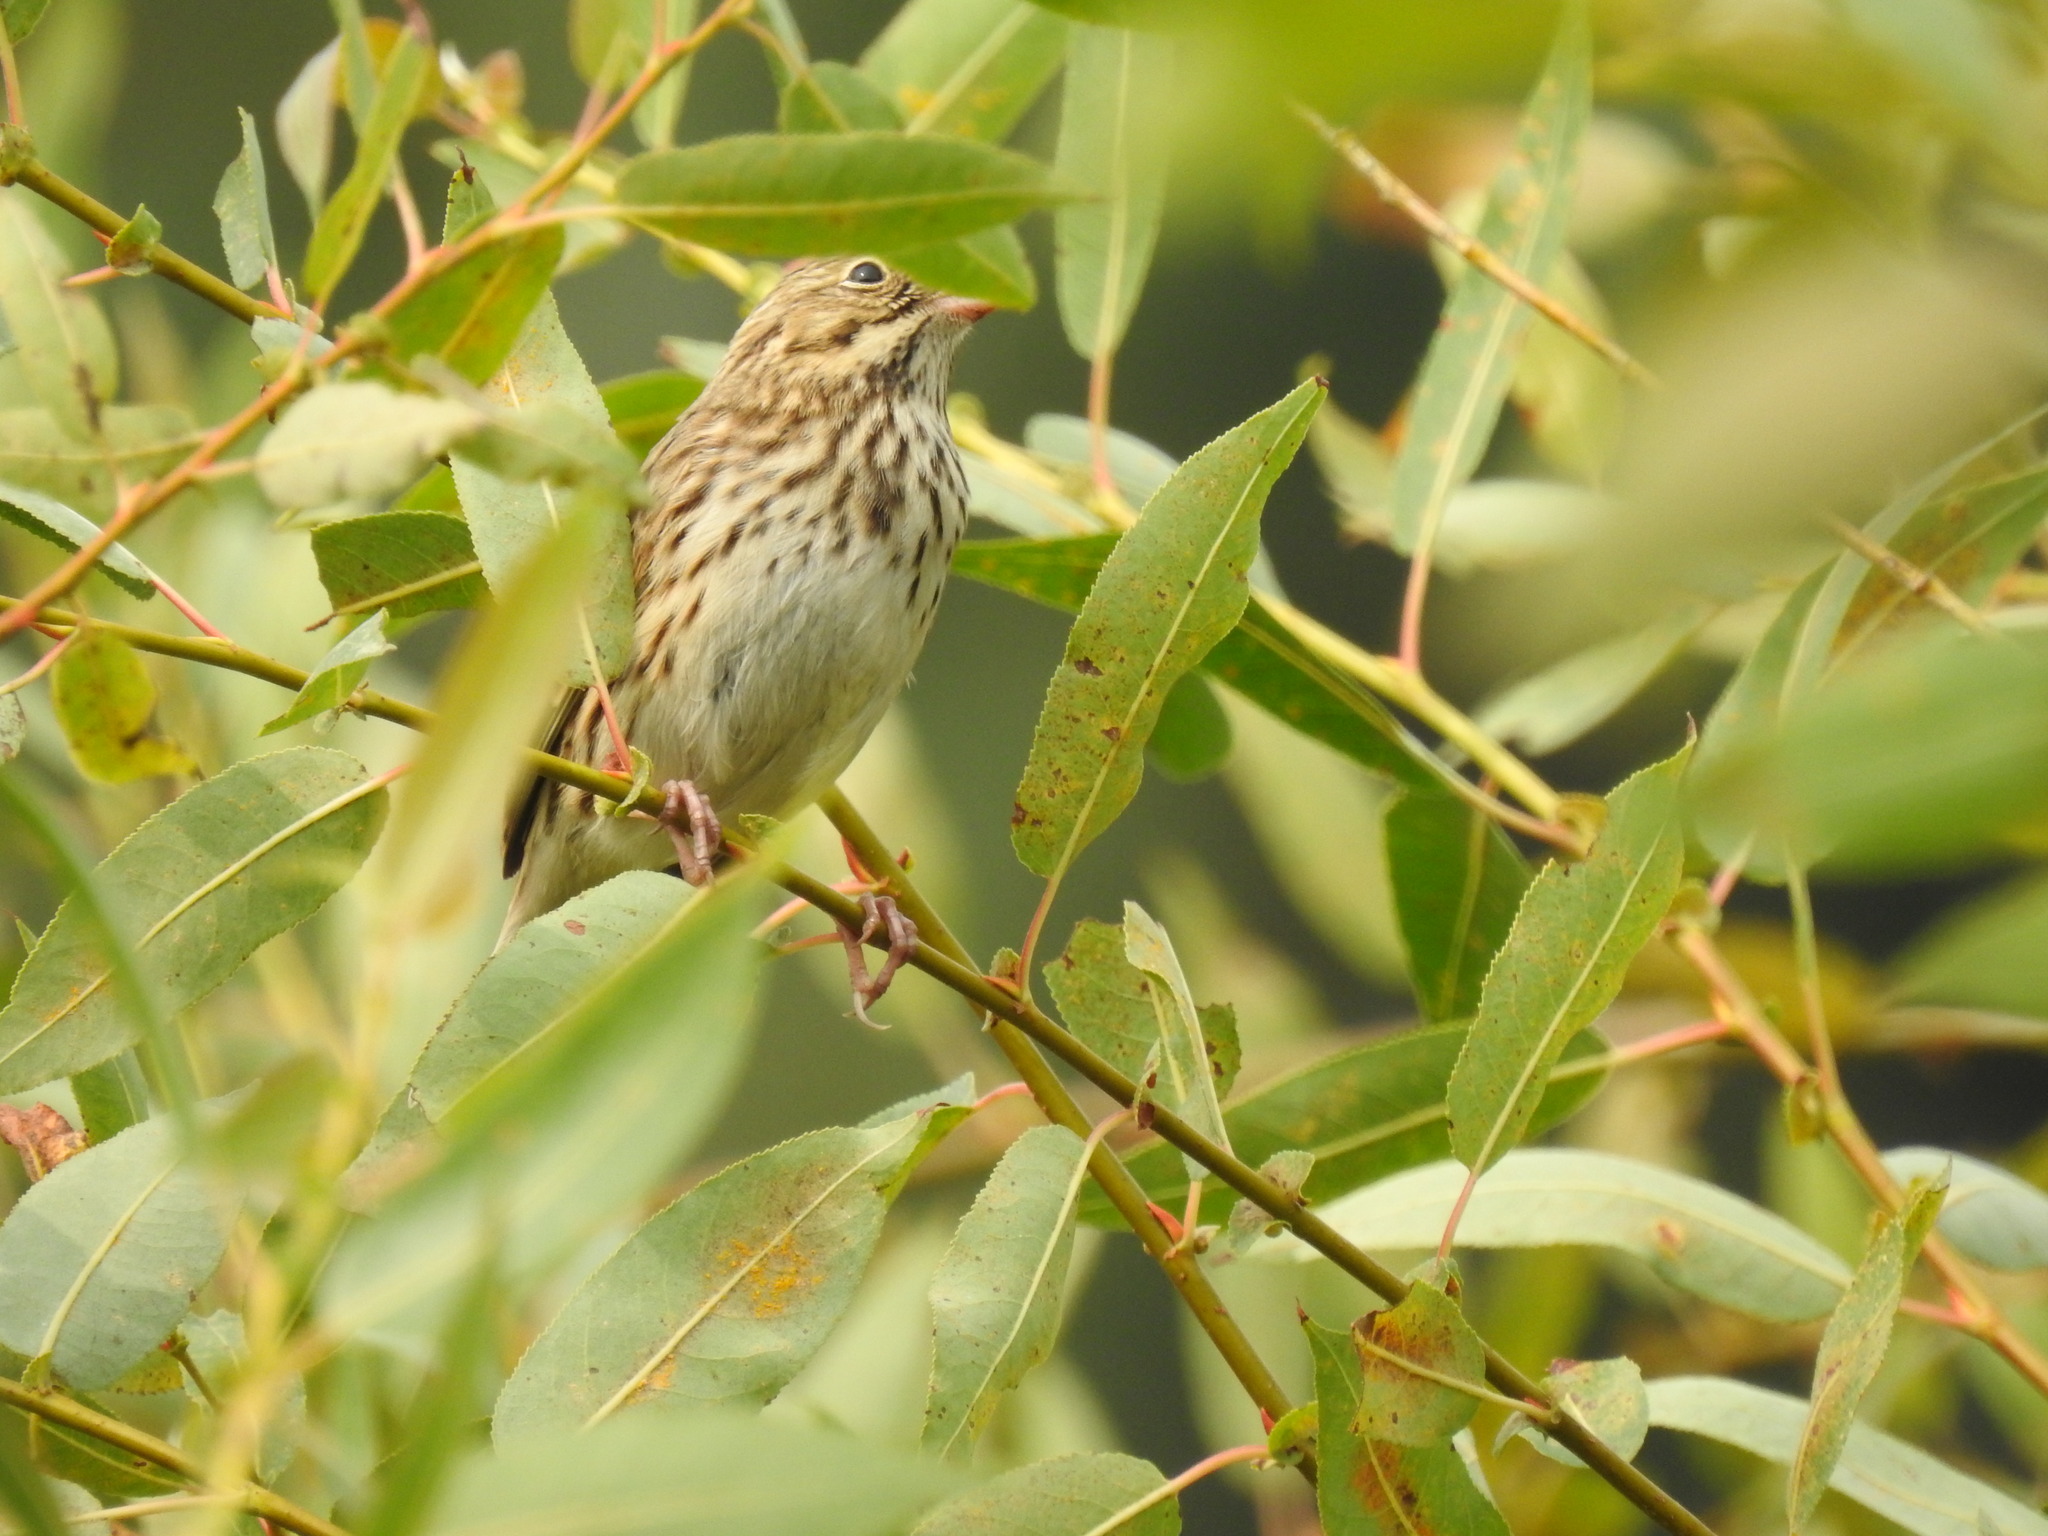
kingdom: Animalia
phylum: Chordata
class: Aves
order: Passeriformes
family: Passerellidae
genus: Passerculus
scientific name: Passerculus sandwichensis
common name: Savannah sparrow
